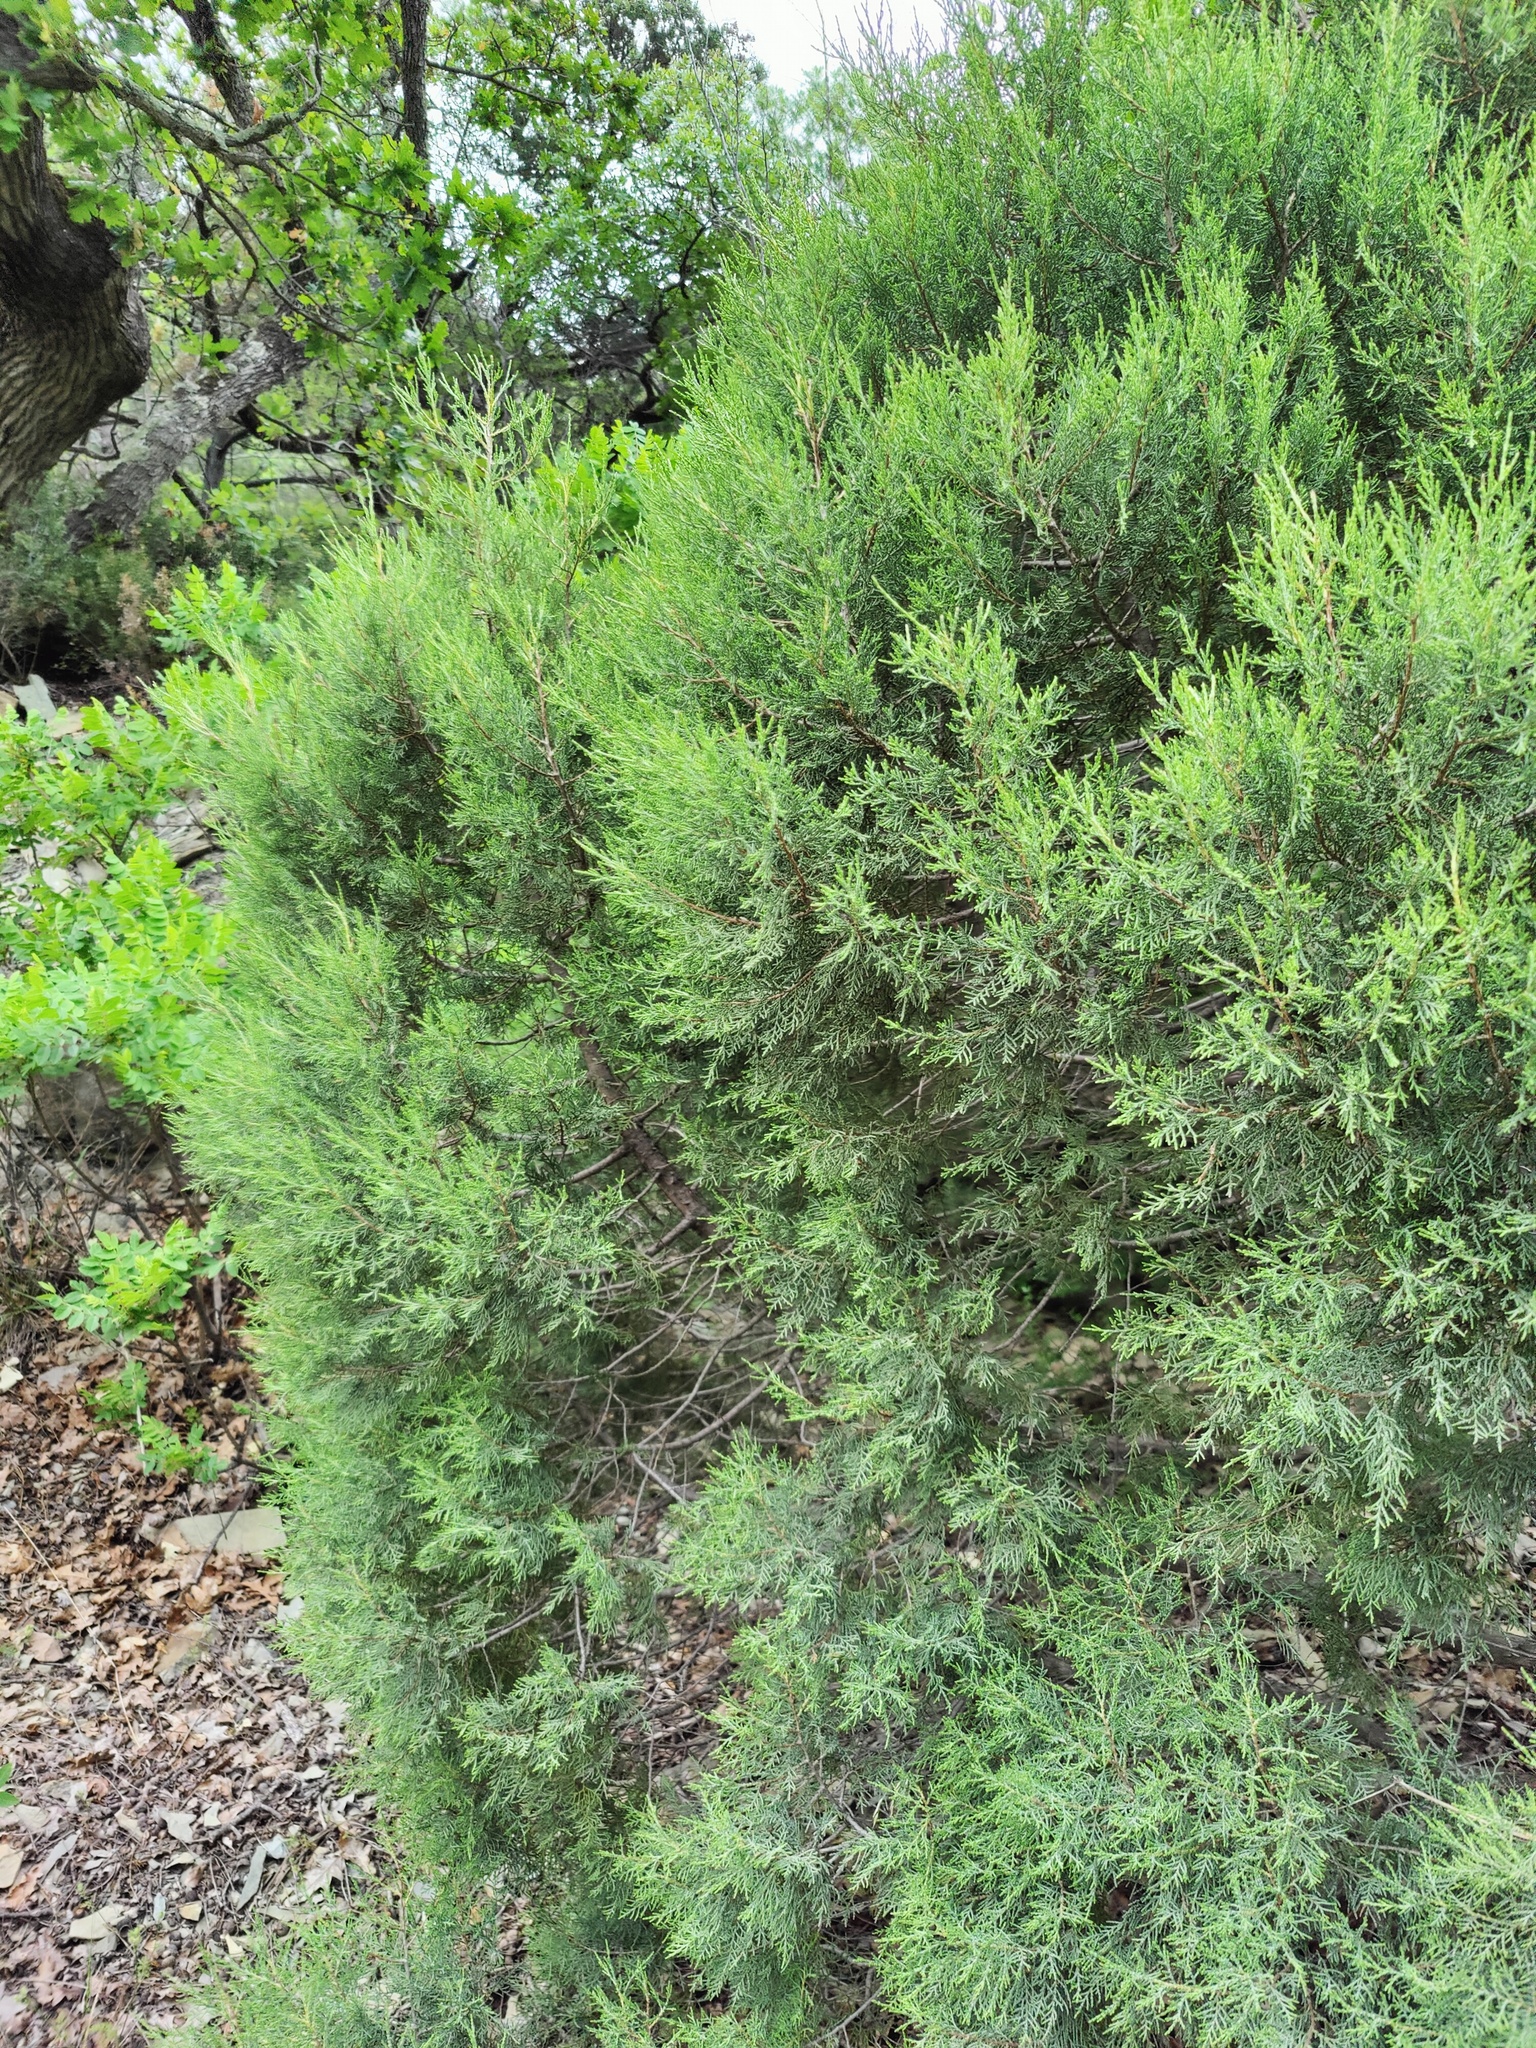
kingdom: Plantae
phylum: Tracheophyta
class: Pinopsida
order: Pinales
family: Cupressaceae
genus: Juniperus
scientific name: Juniperus excelsa
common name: Crimean juniper
